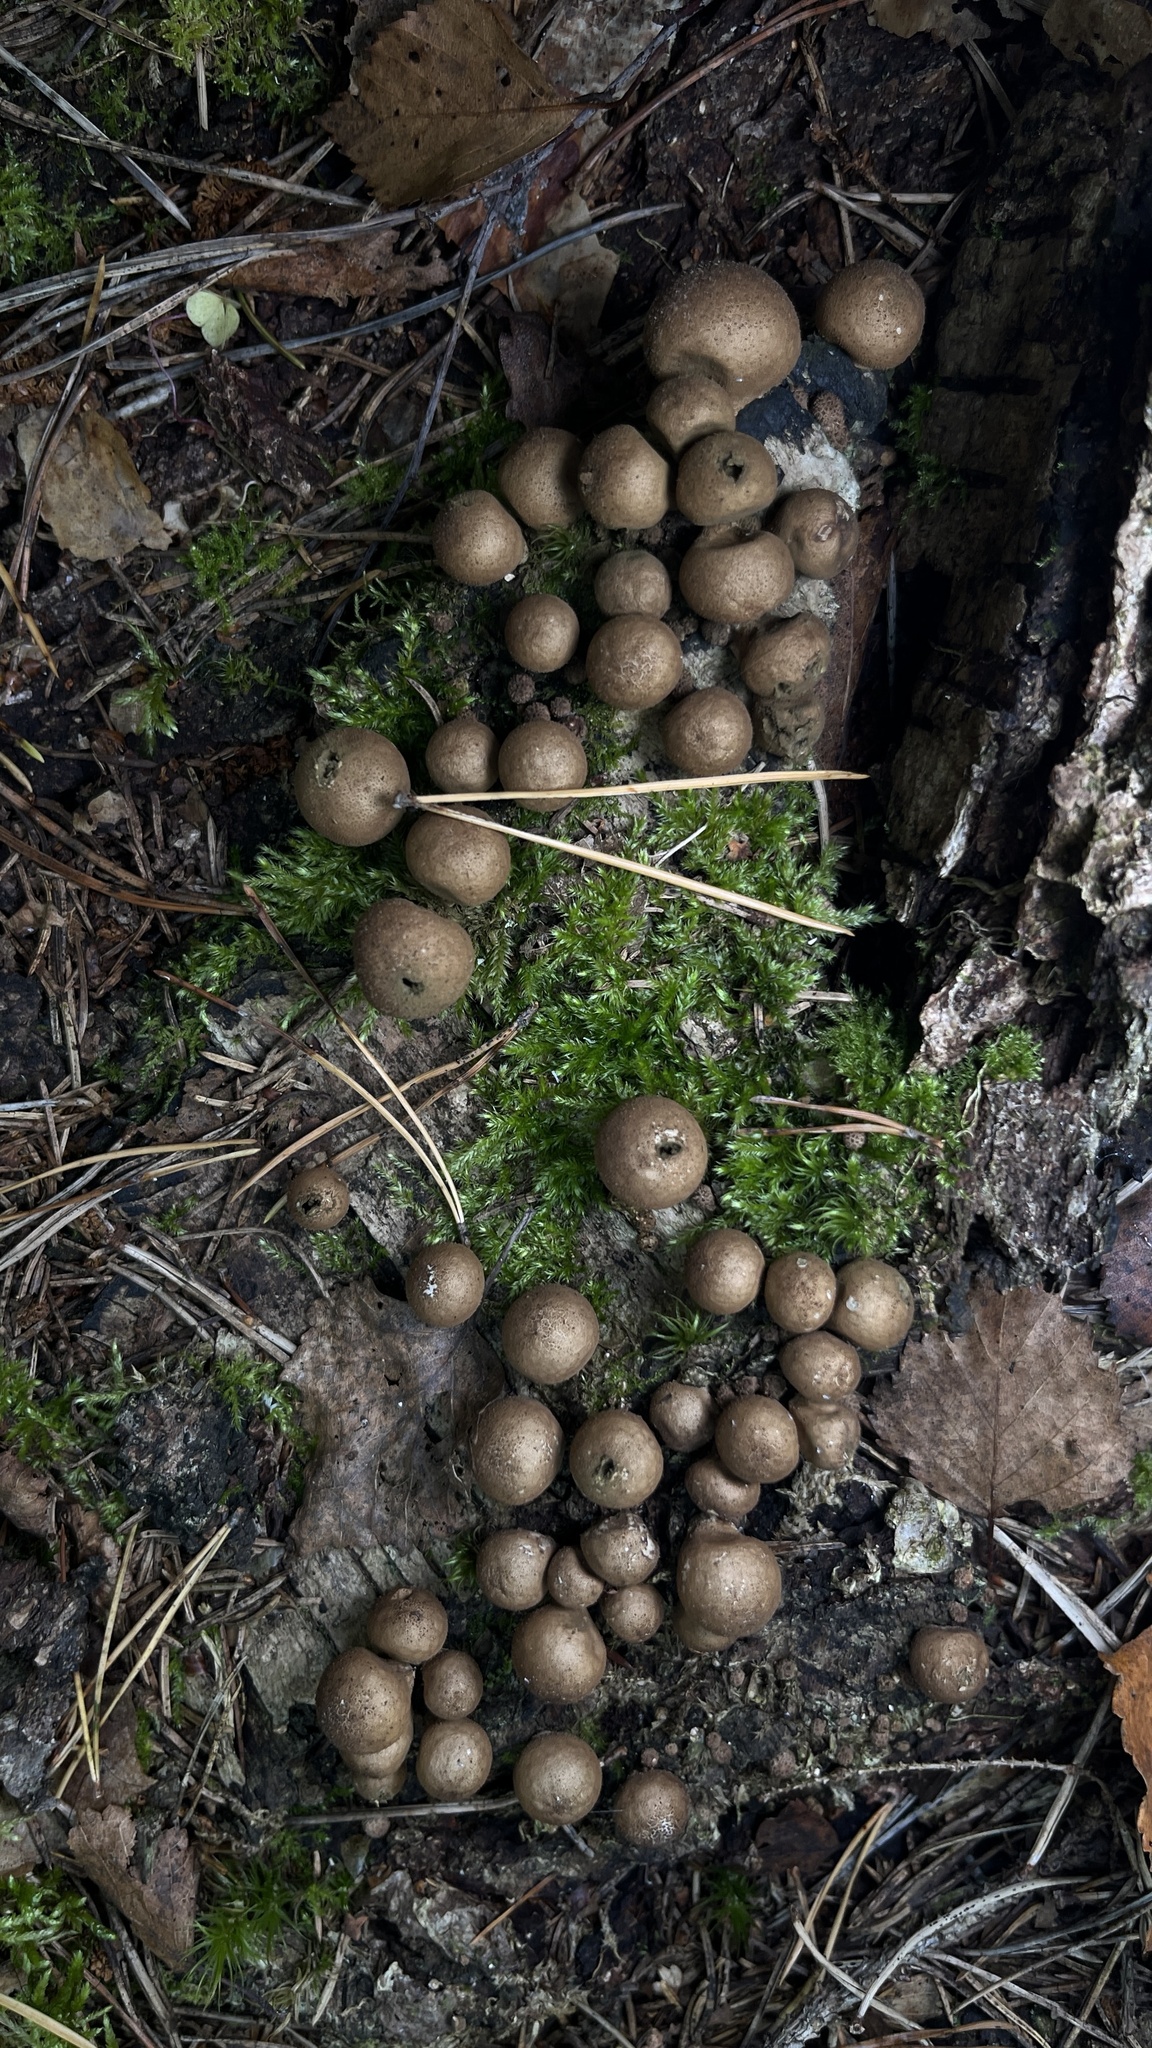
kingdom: Fungi
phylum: Basidiomycota
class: Agaricomycetes
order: Agaricales
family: Lycoperdaceae
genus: Apioperdon
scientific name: Apioperdon pyriforme
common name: Pear-shaped puffball
